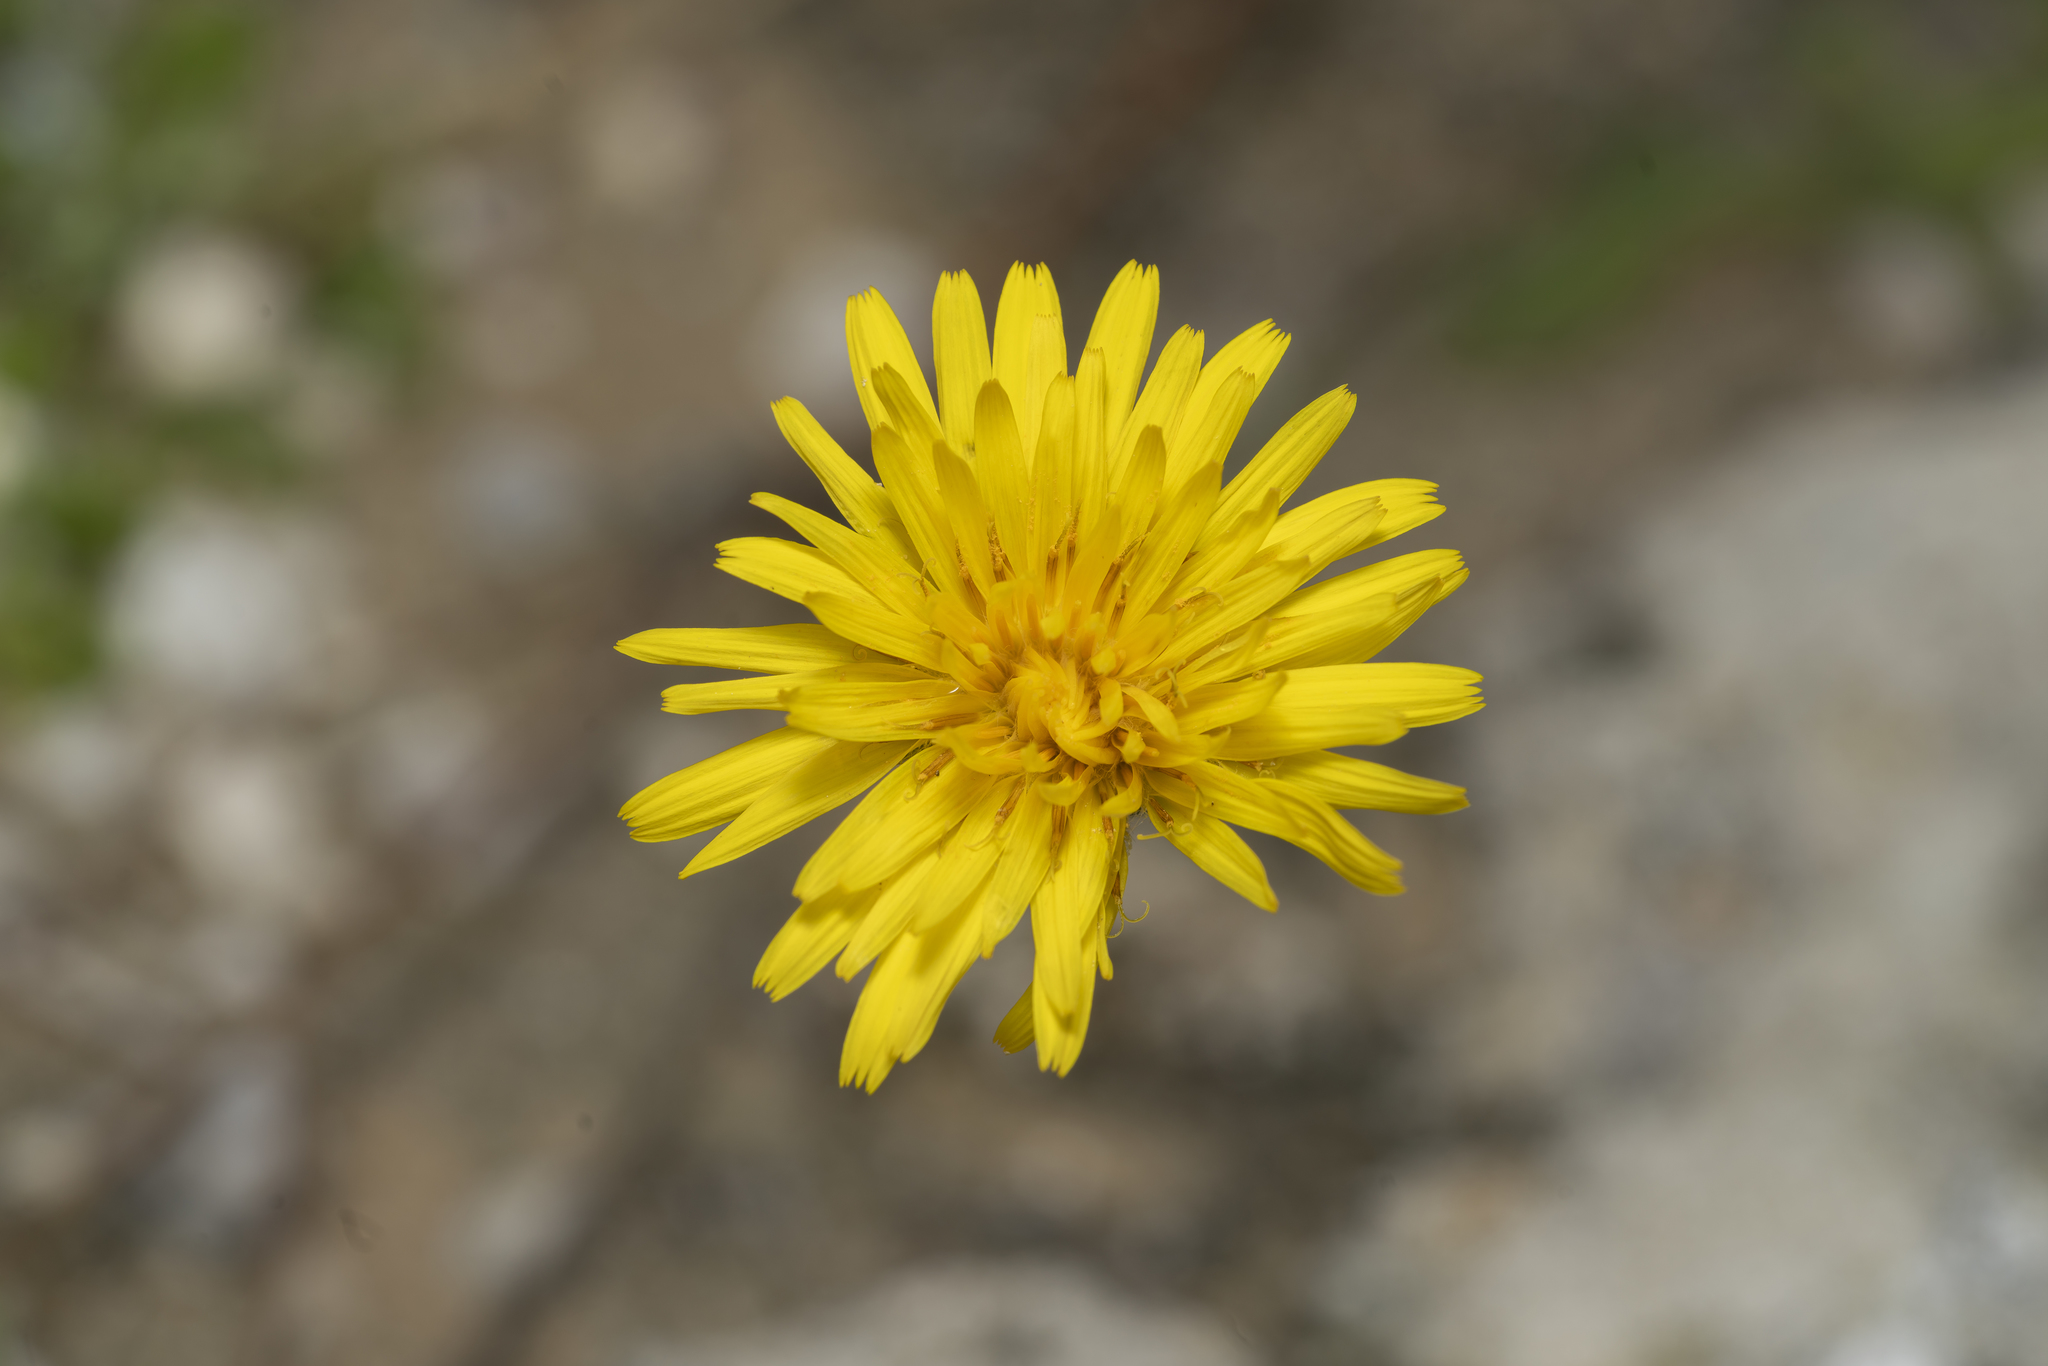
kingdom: Plantae
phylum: Tracheophyta
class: Magnoliopsida
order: Asterales
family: Asteraceae
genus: Reichardia
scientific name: Reichardia picroides
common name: Common brighteyes
